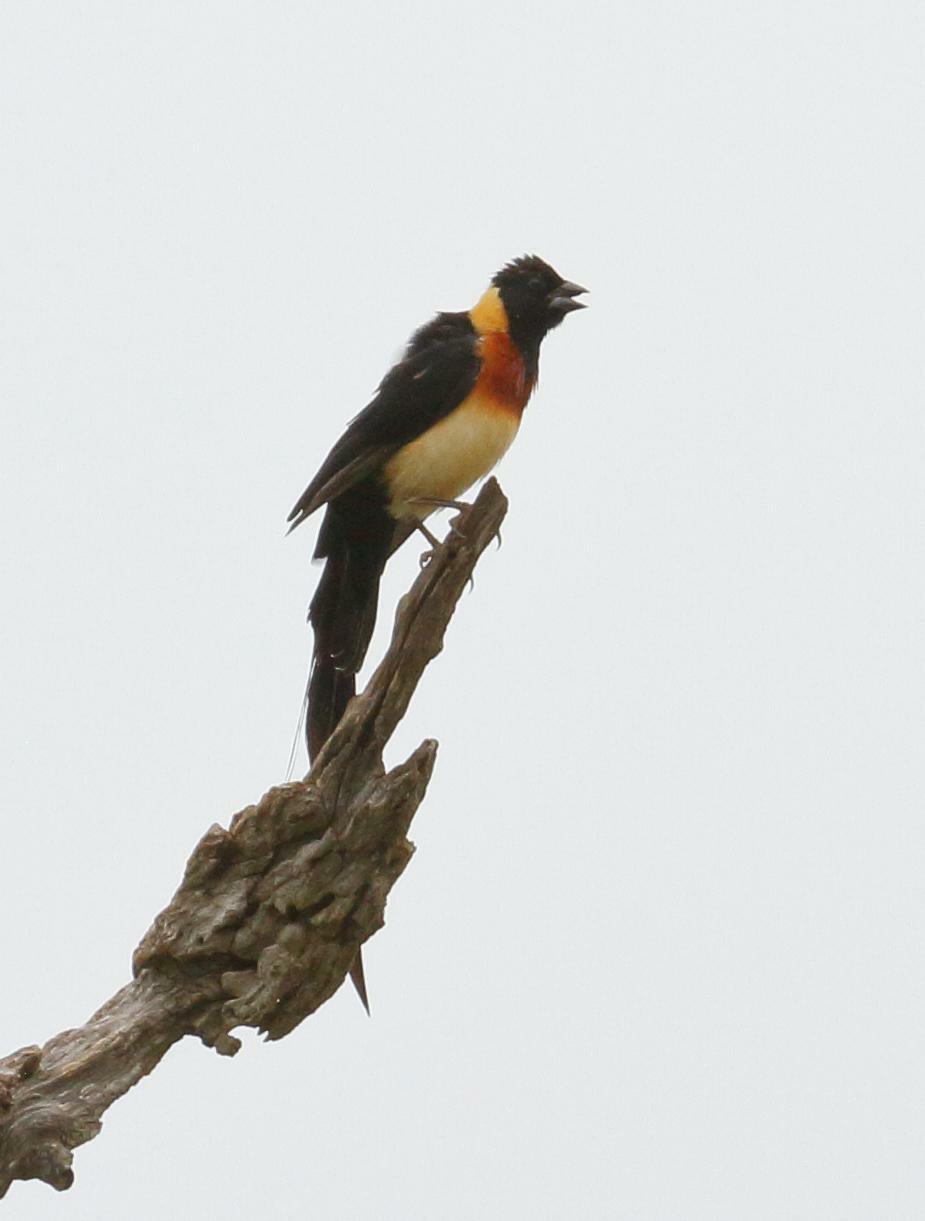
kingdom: Animalia
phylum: Chordata
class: Aves
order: Passeriformes
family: Viduidae
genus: Vidua
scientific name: Vidua paradisaea
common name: Long-tailed paradise whydah
